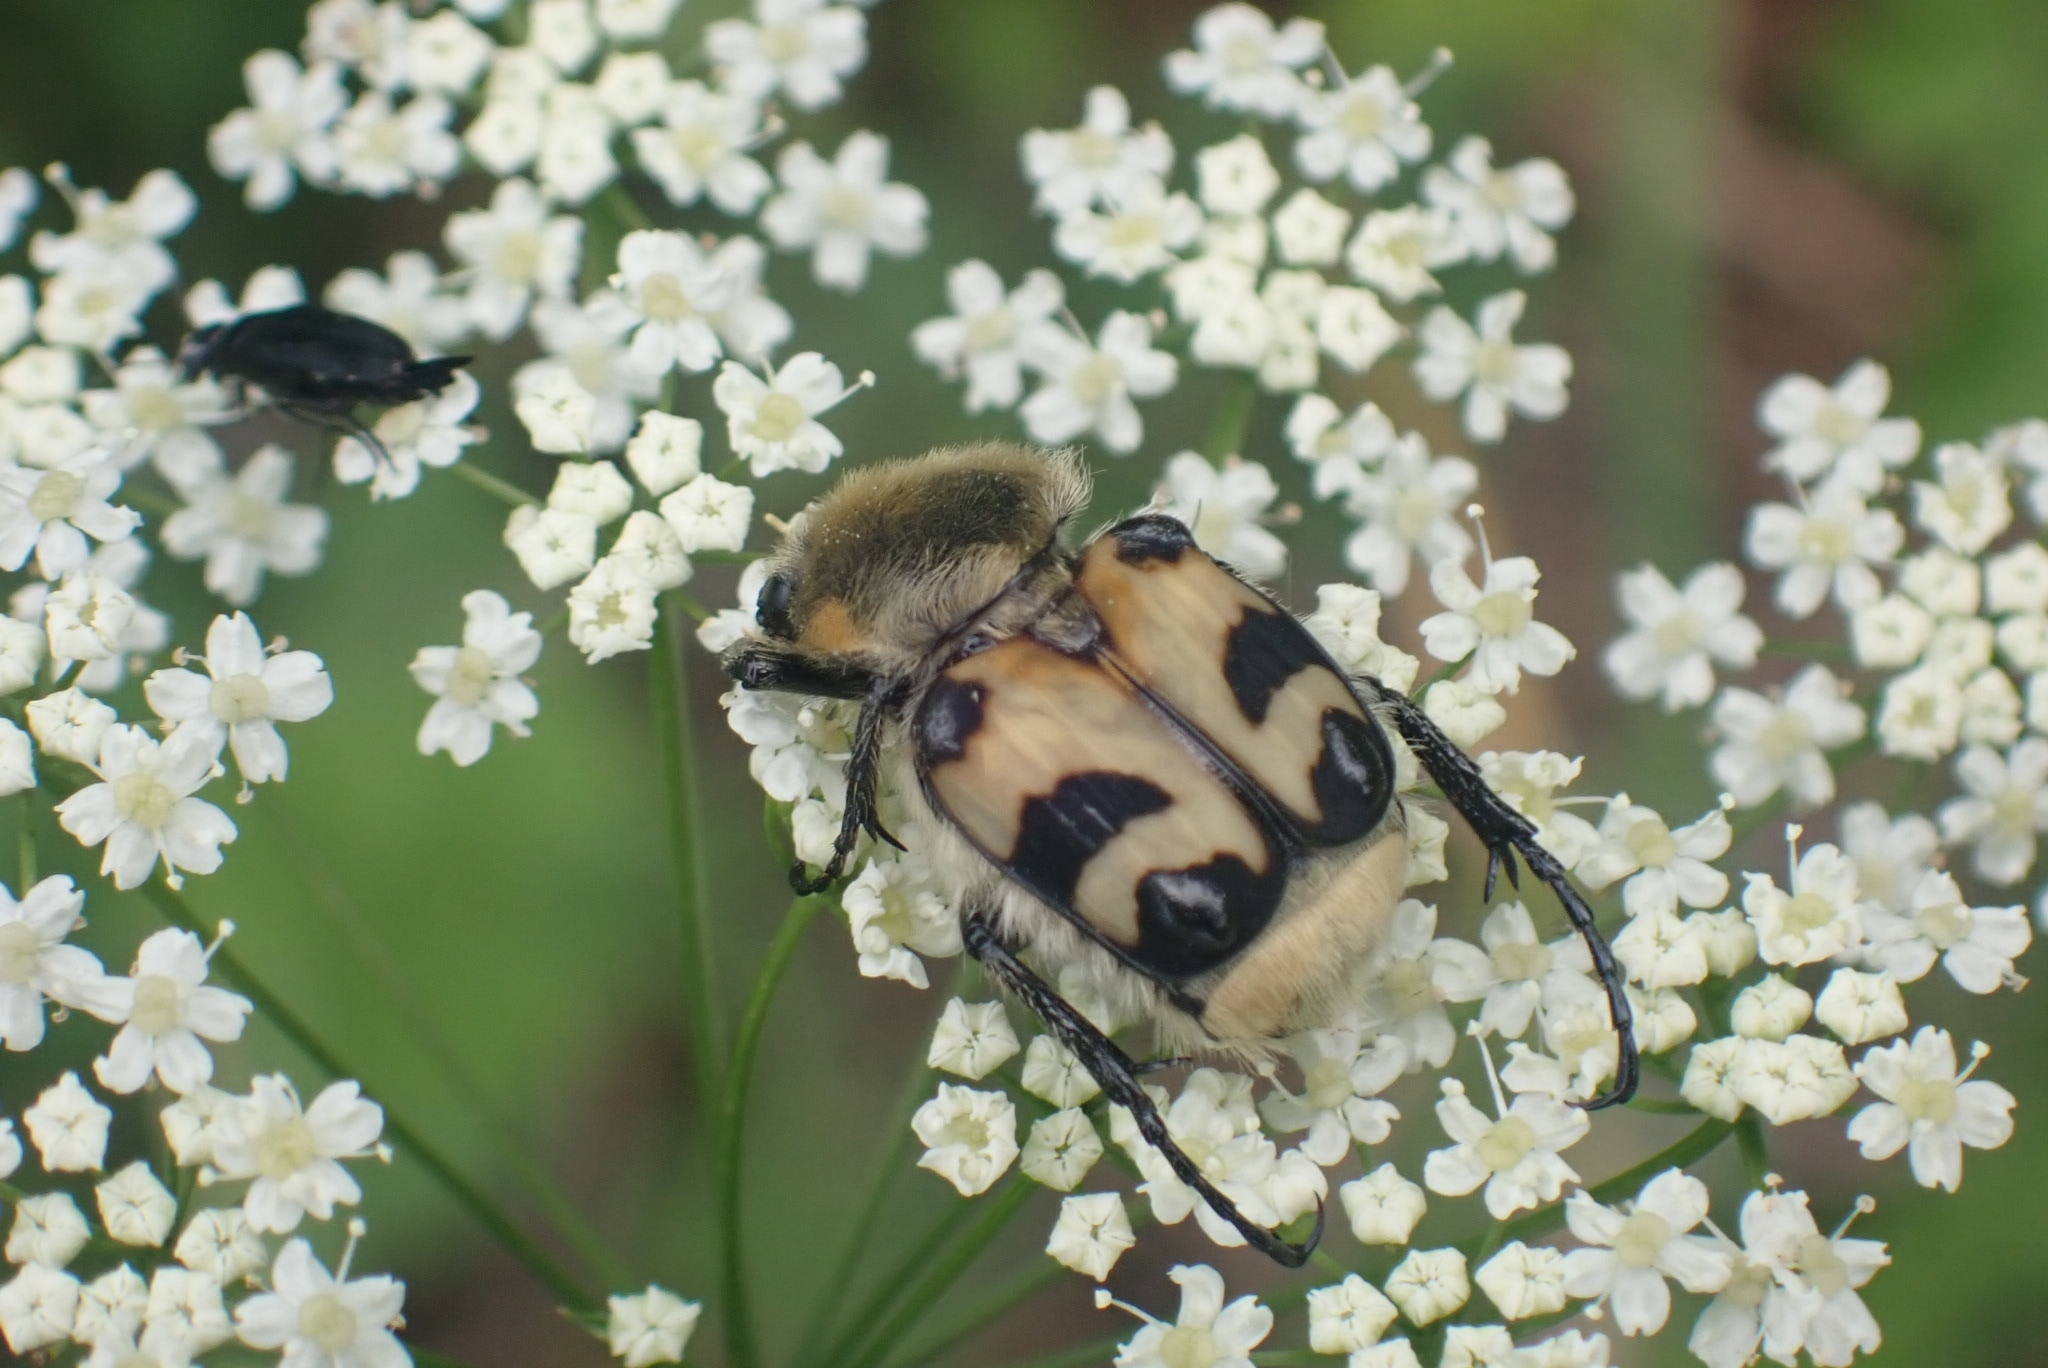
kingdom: Animalia
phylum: Arthropoda
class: Insecta
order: Coleoptera
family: Scarabaeidae
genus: Trichius
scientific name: Trichius fasciatus
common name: Bee beetle
